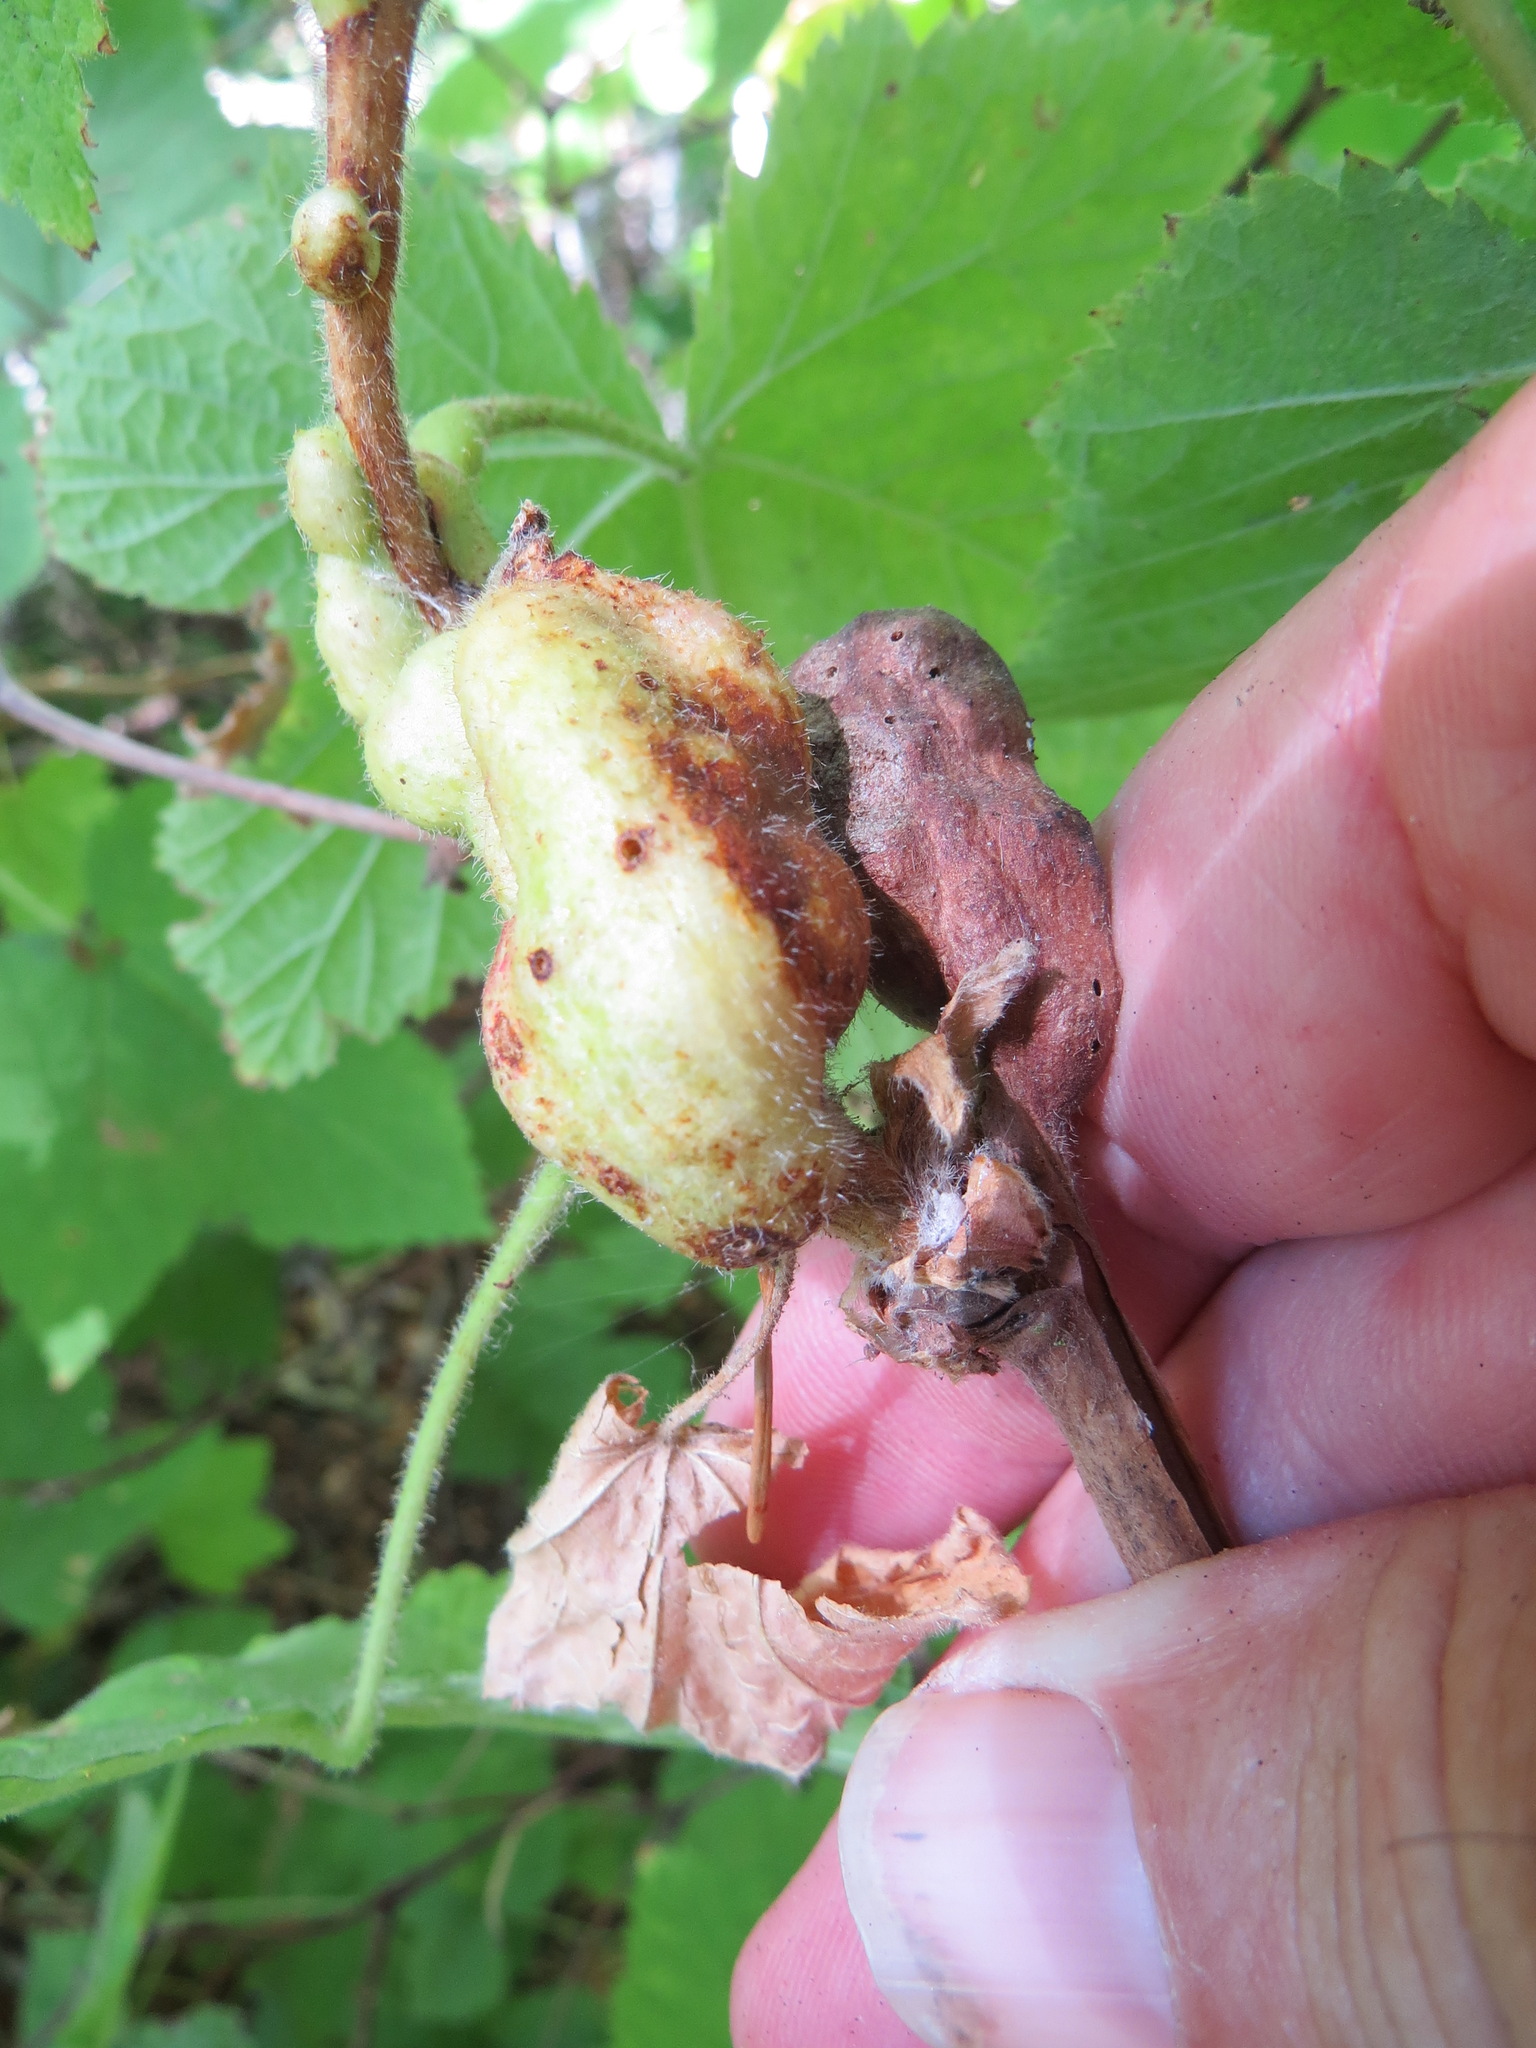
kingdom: Animalia
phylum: Arthropoda
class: Insecta
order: Hymenoptera
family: Cynipidae
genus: Diastrophus
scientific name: Diastrophus
